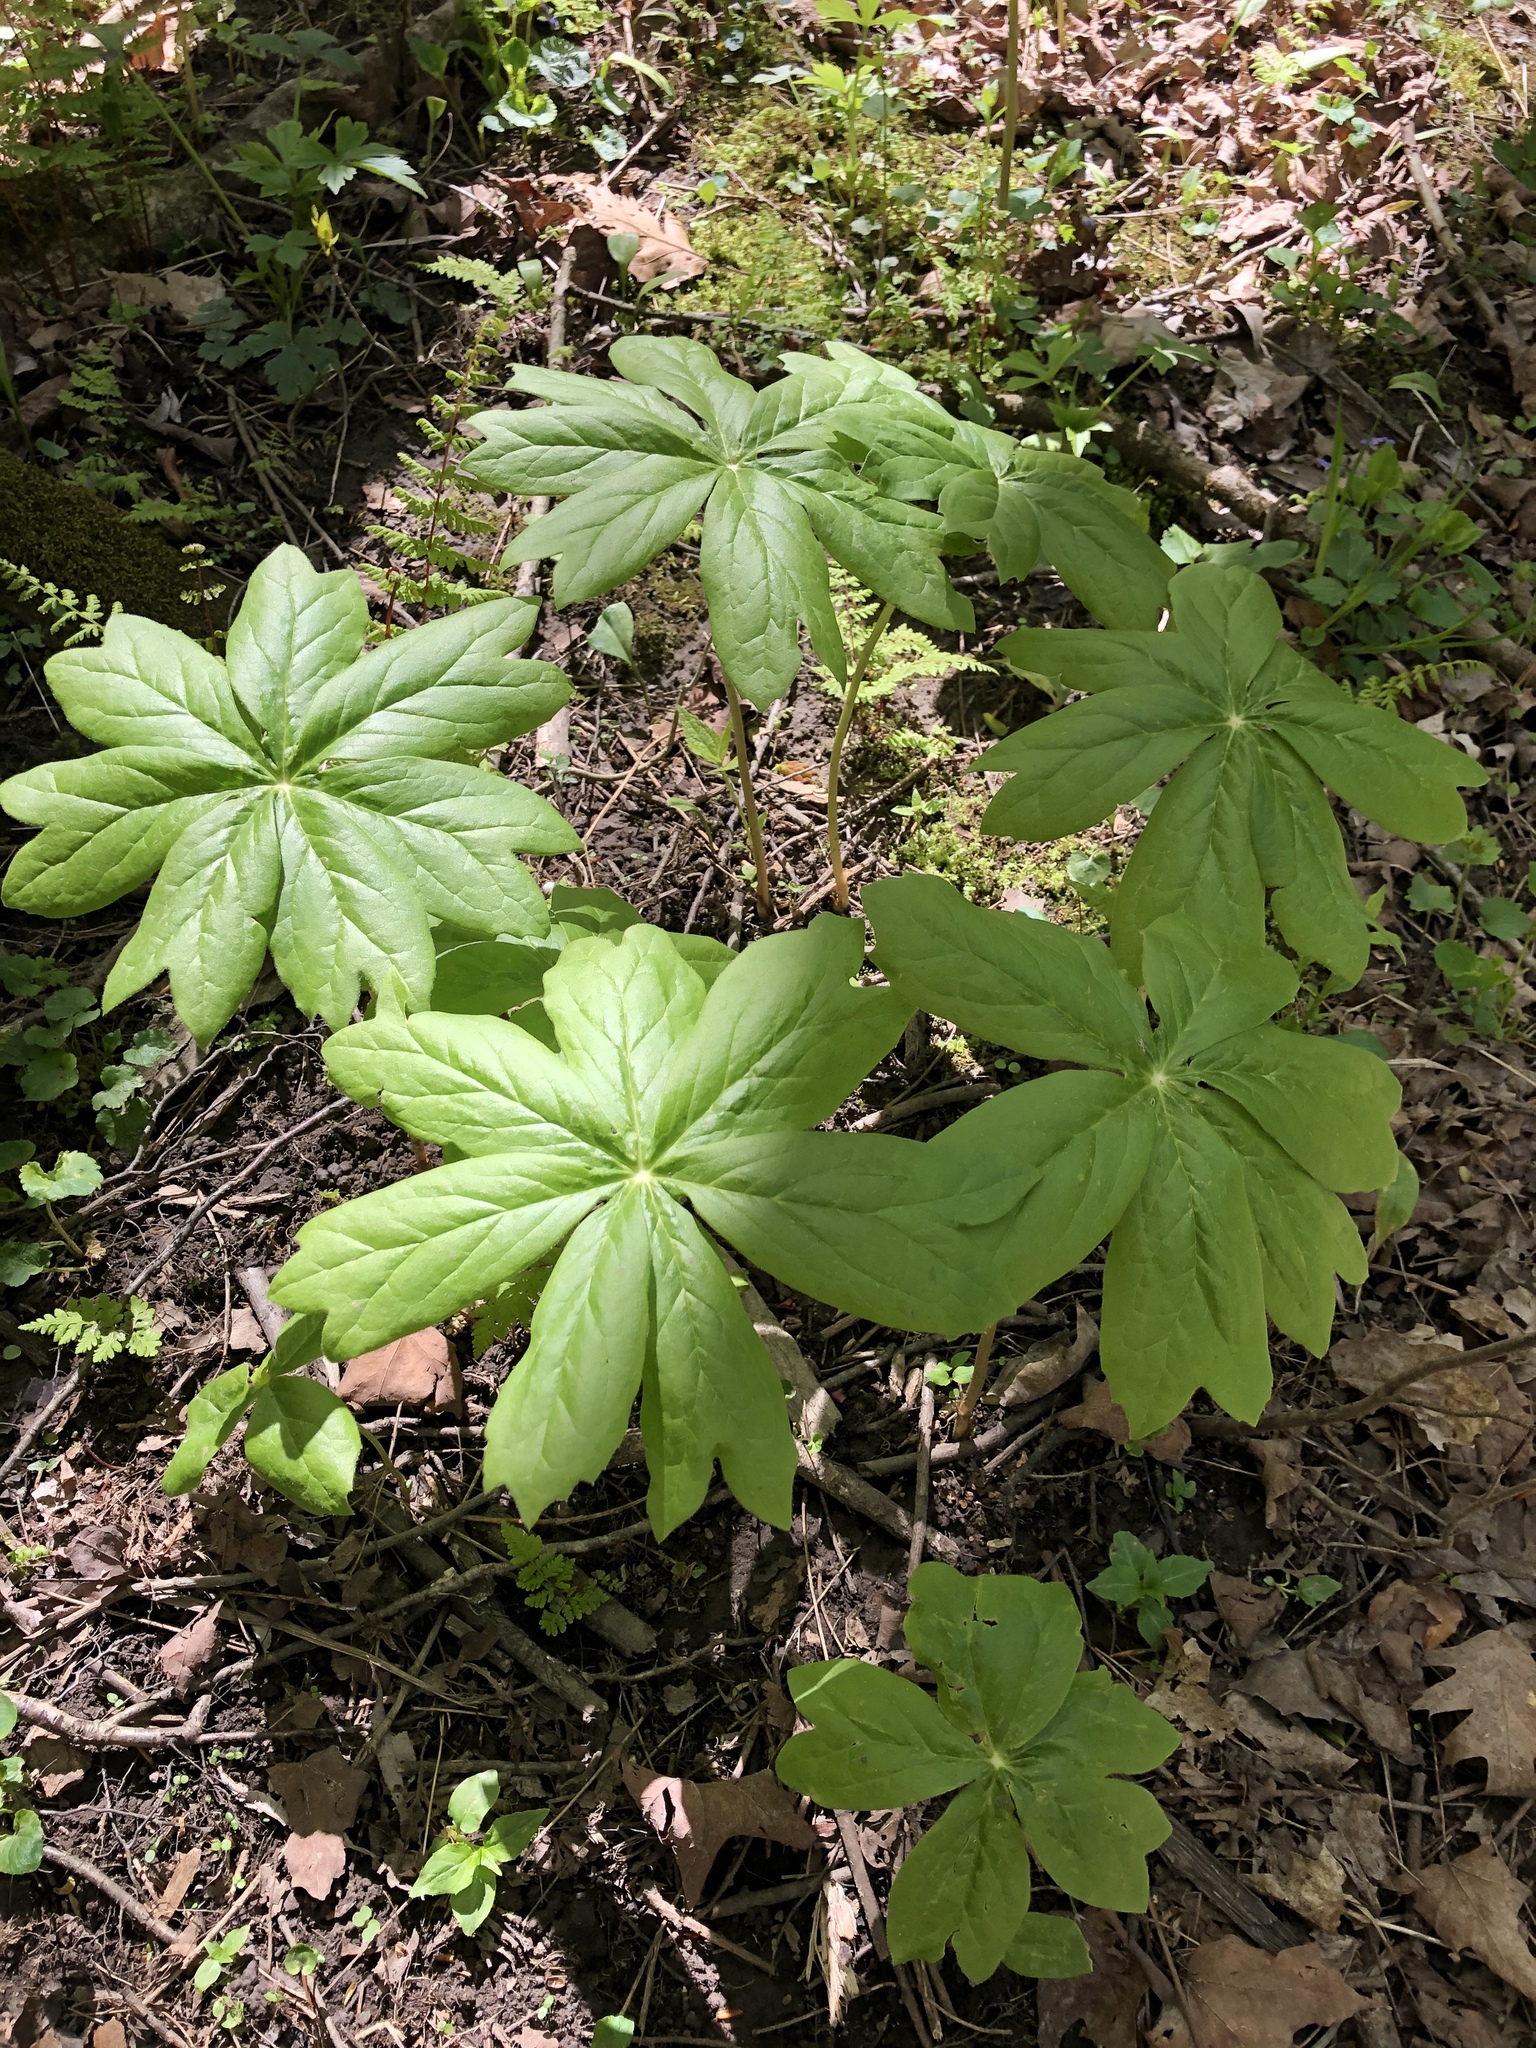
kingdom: Plantae
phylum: Tracheophyta
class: Magnoliopsida
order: Ranunculales
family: Berberidaceae
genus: Podophyllum
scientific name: Podophyllum peltatum
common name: Wild mandrake
